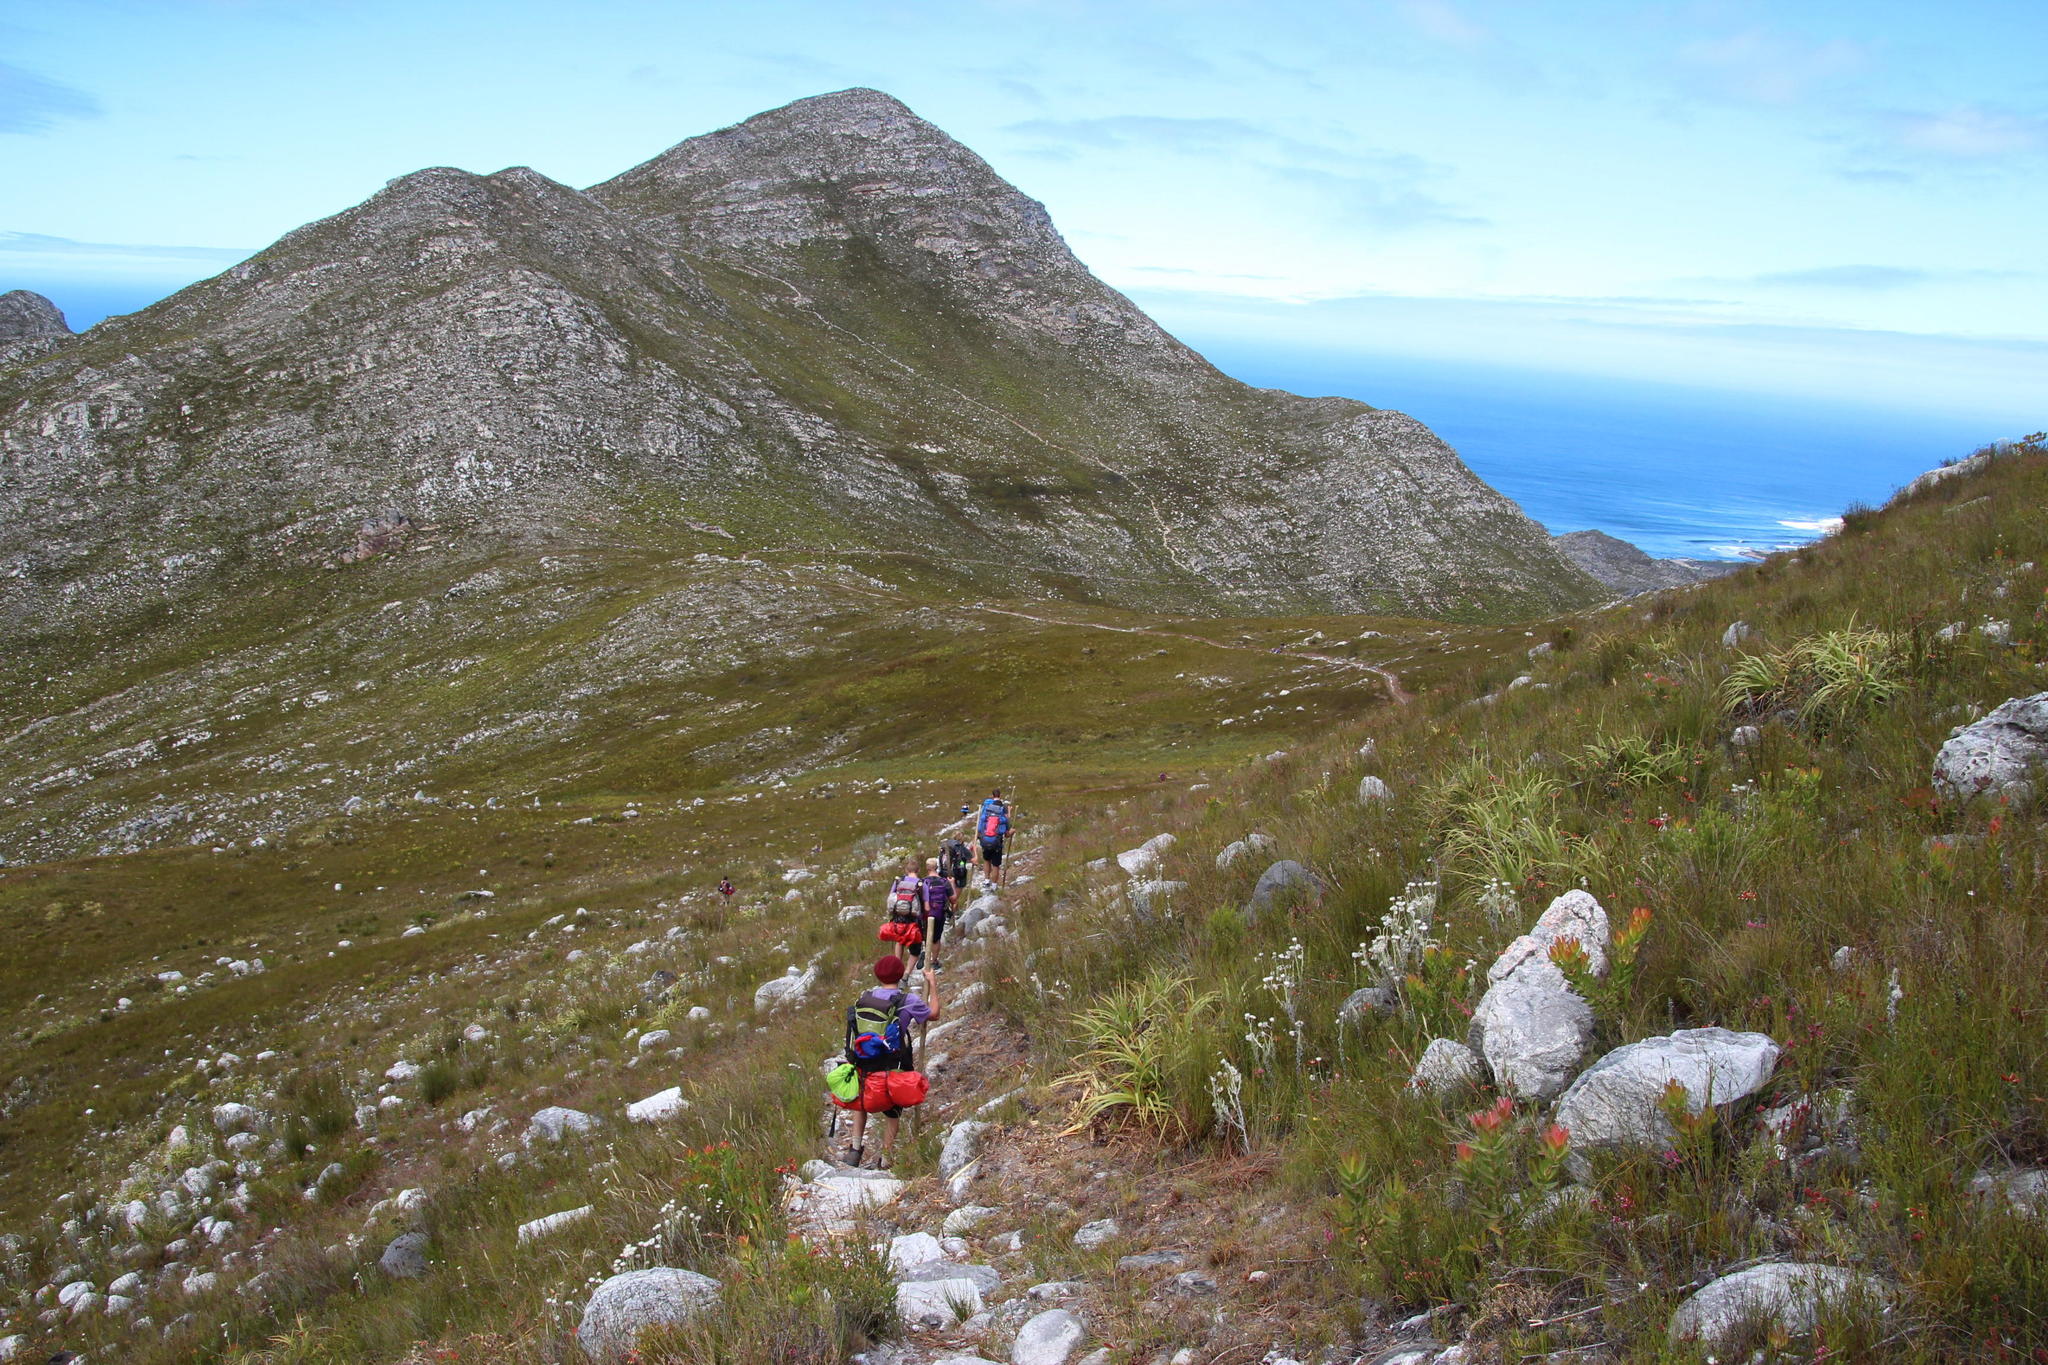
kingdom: Plantae
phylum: Tracheophyta
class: Liliopsida
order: Poales
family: Cyperaceae
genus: Tetraria
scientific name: Tetraria thermalis
